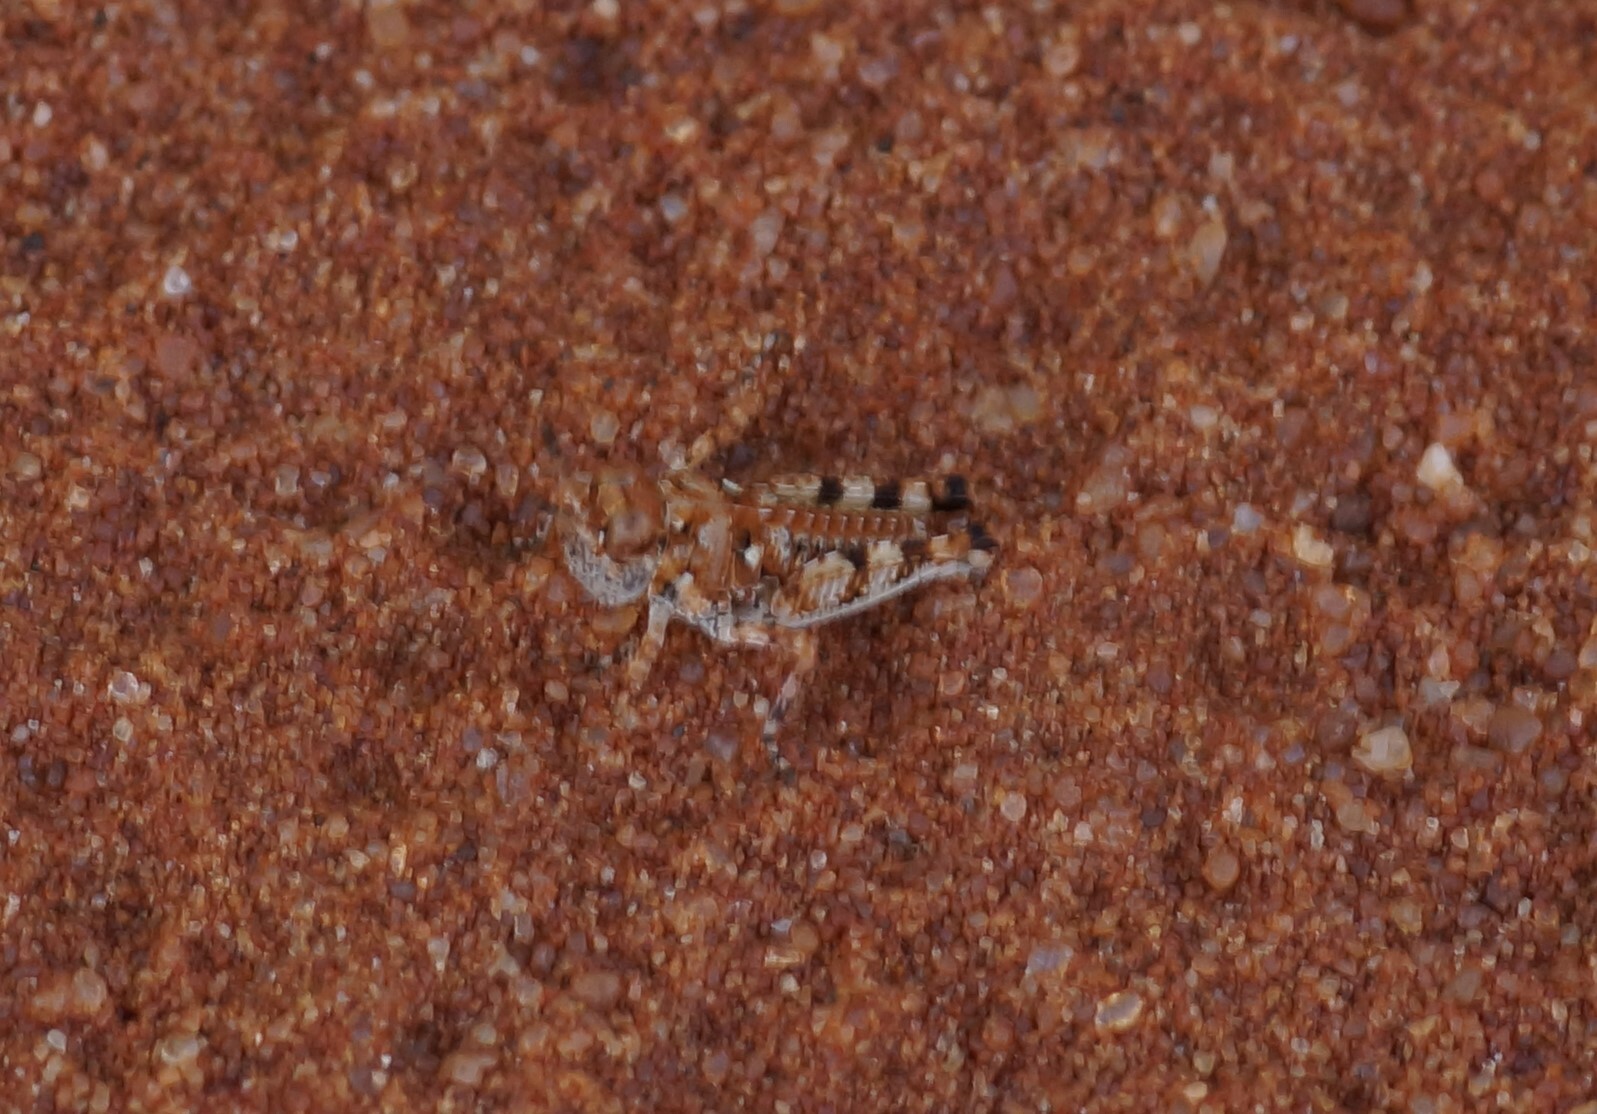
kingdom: Animalia
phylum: Arthropoda
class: Insecta
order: Orthoptera
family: Acrididae
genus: Urnisa
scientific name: Urnisa guttulosa
